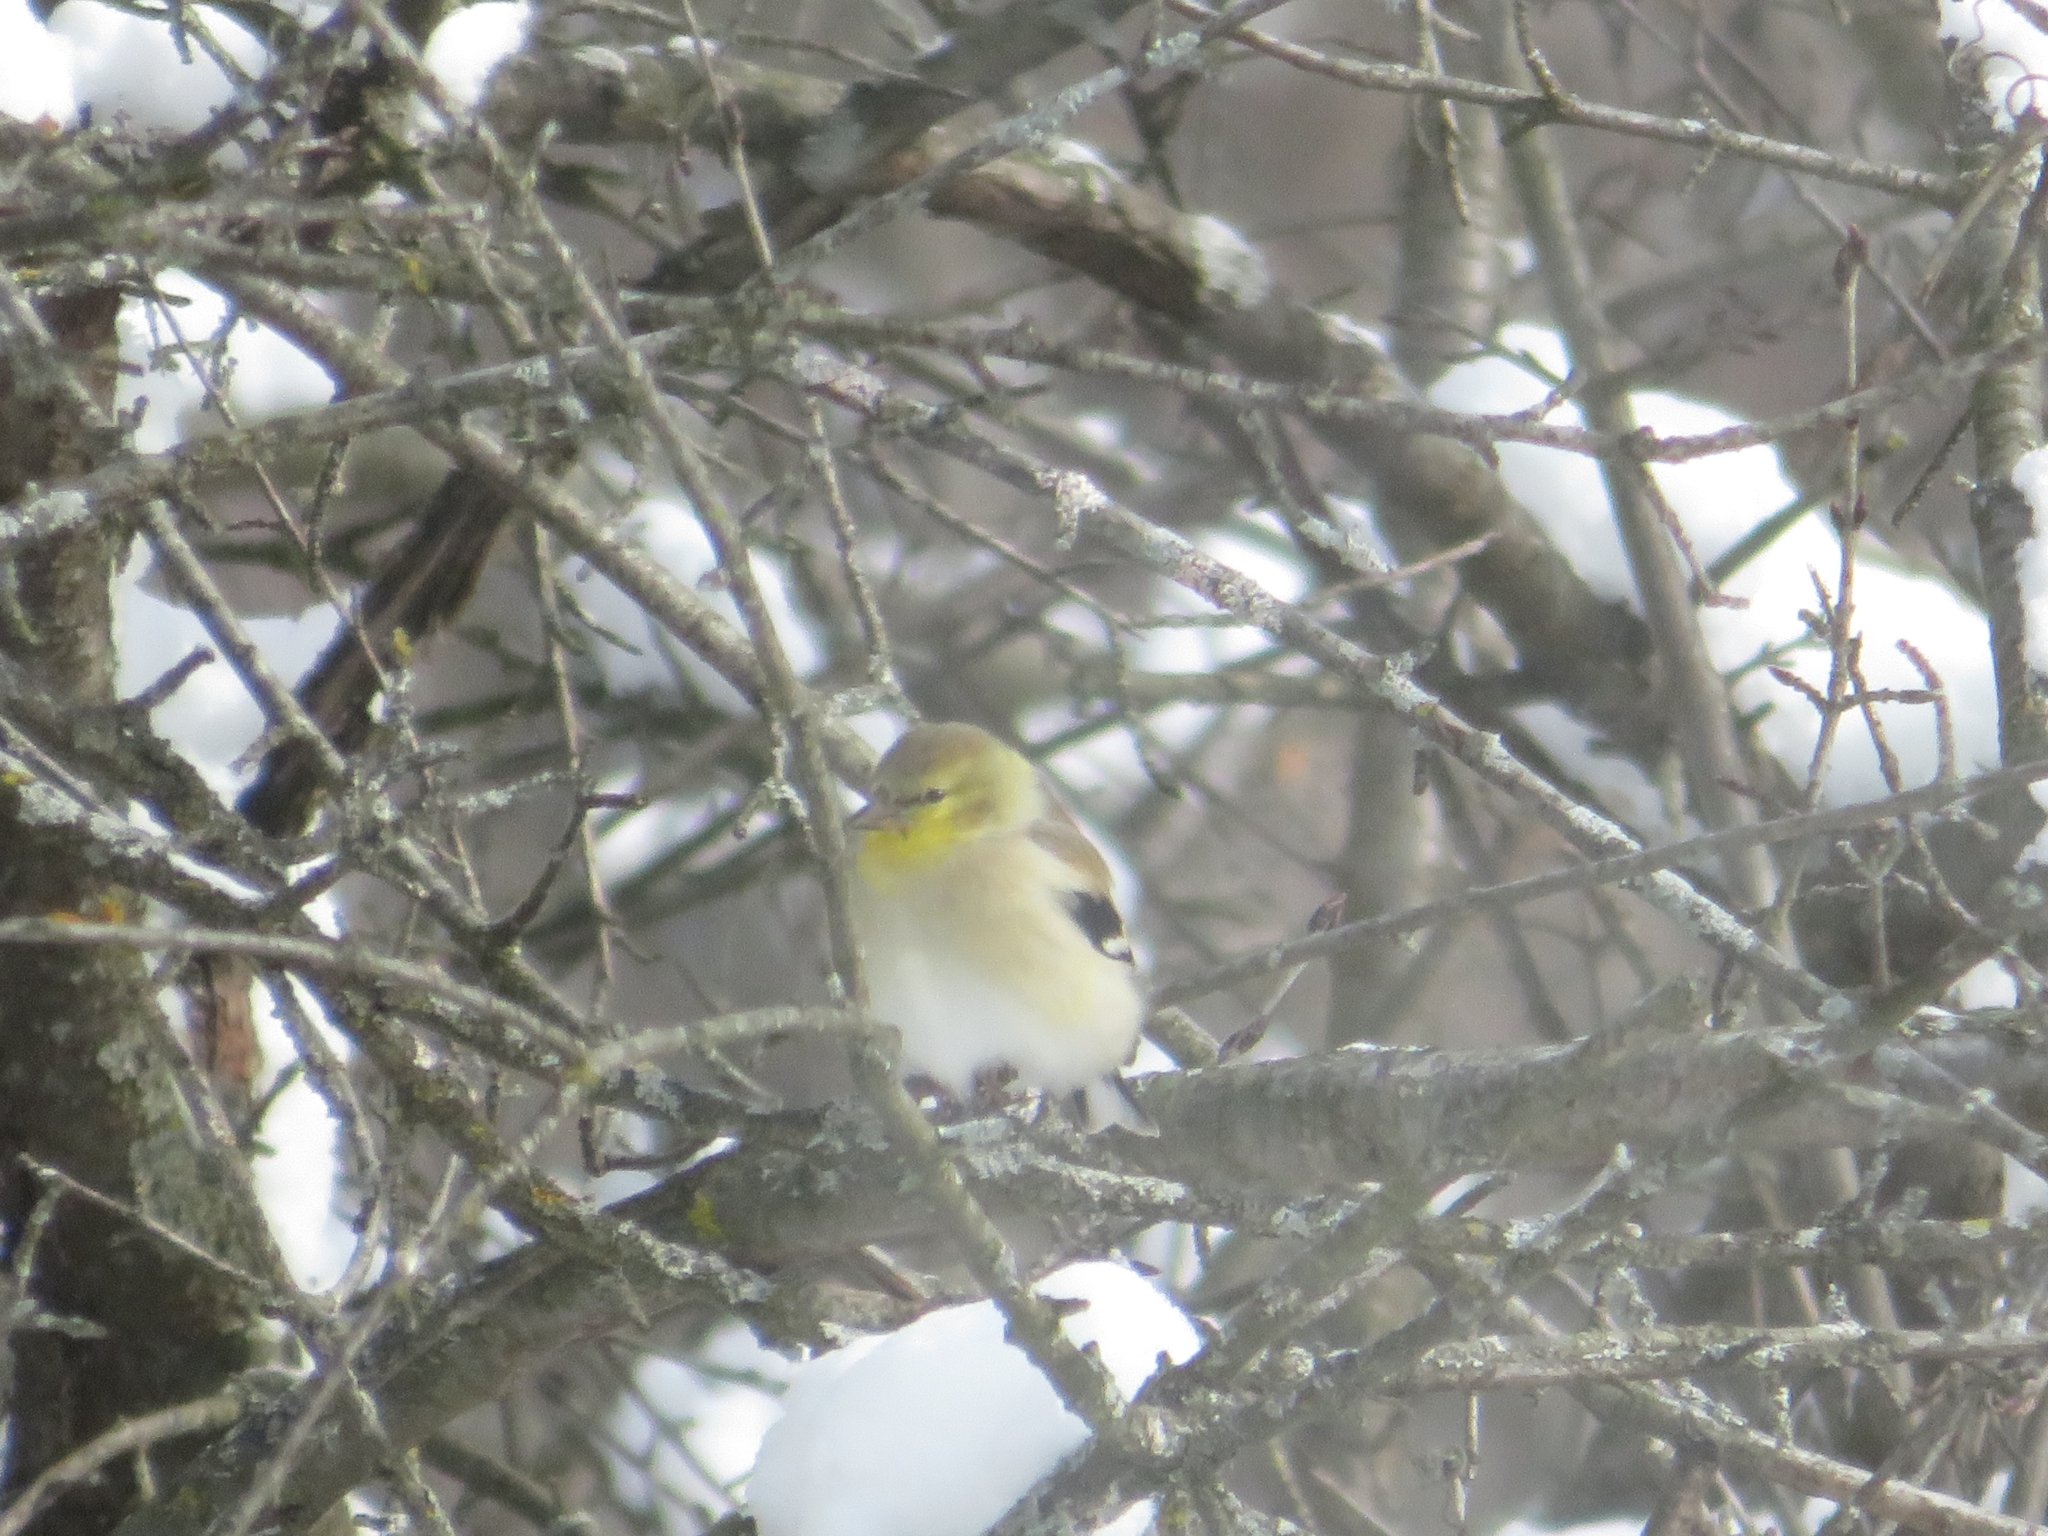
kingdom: Animalia
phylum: Chordata
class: Aves
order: Passeriformes
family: Fringillidae
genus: Spinus
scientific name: Spinus tristis
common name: American goldfinch
